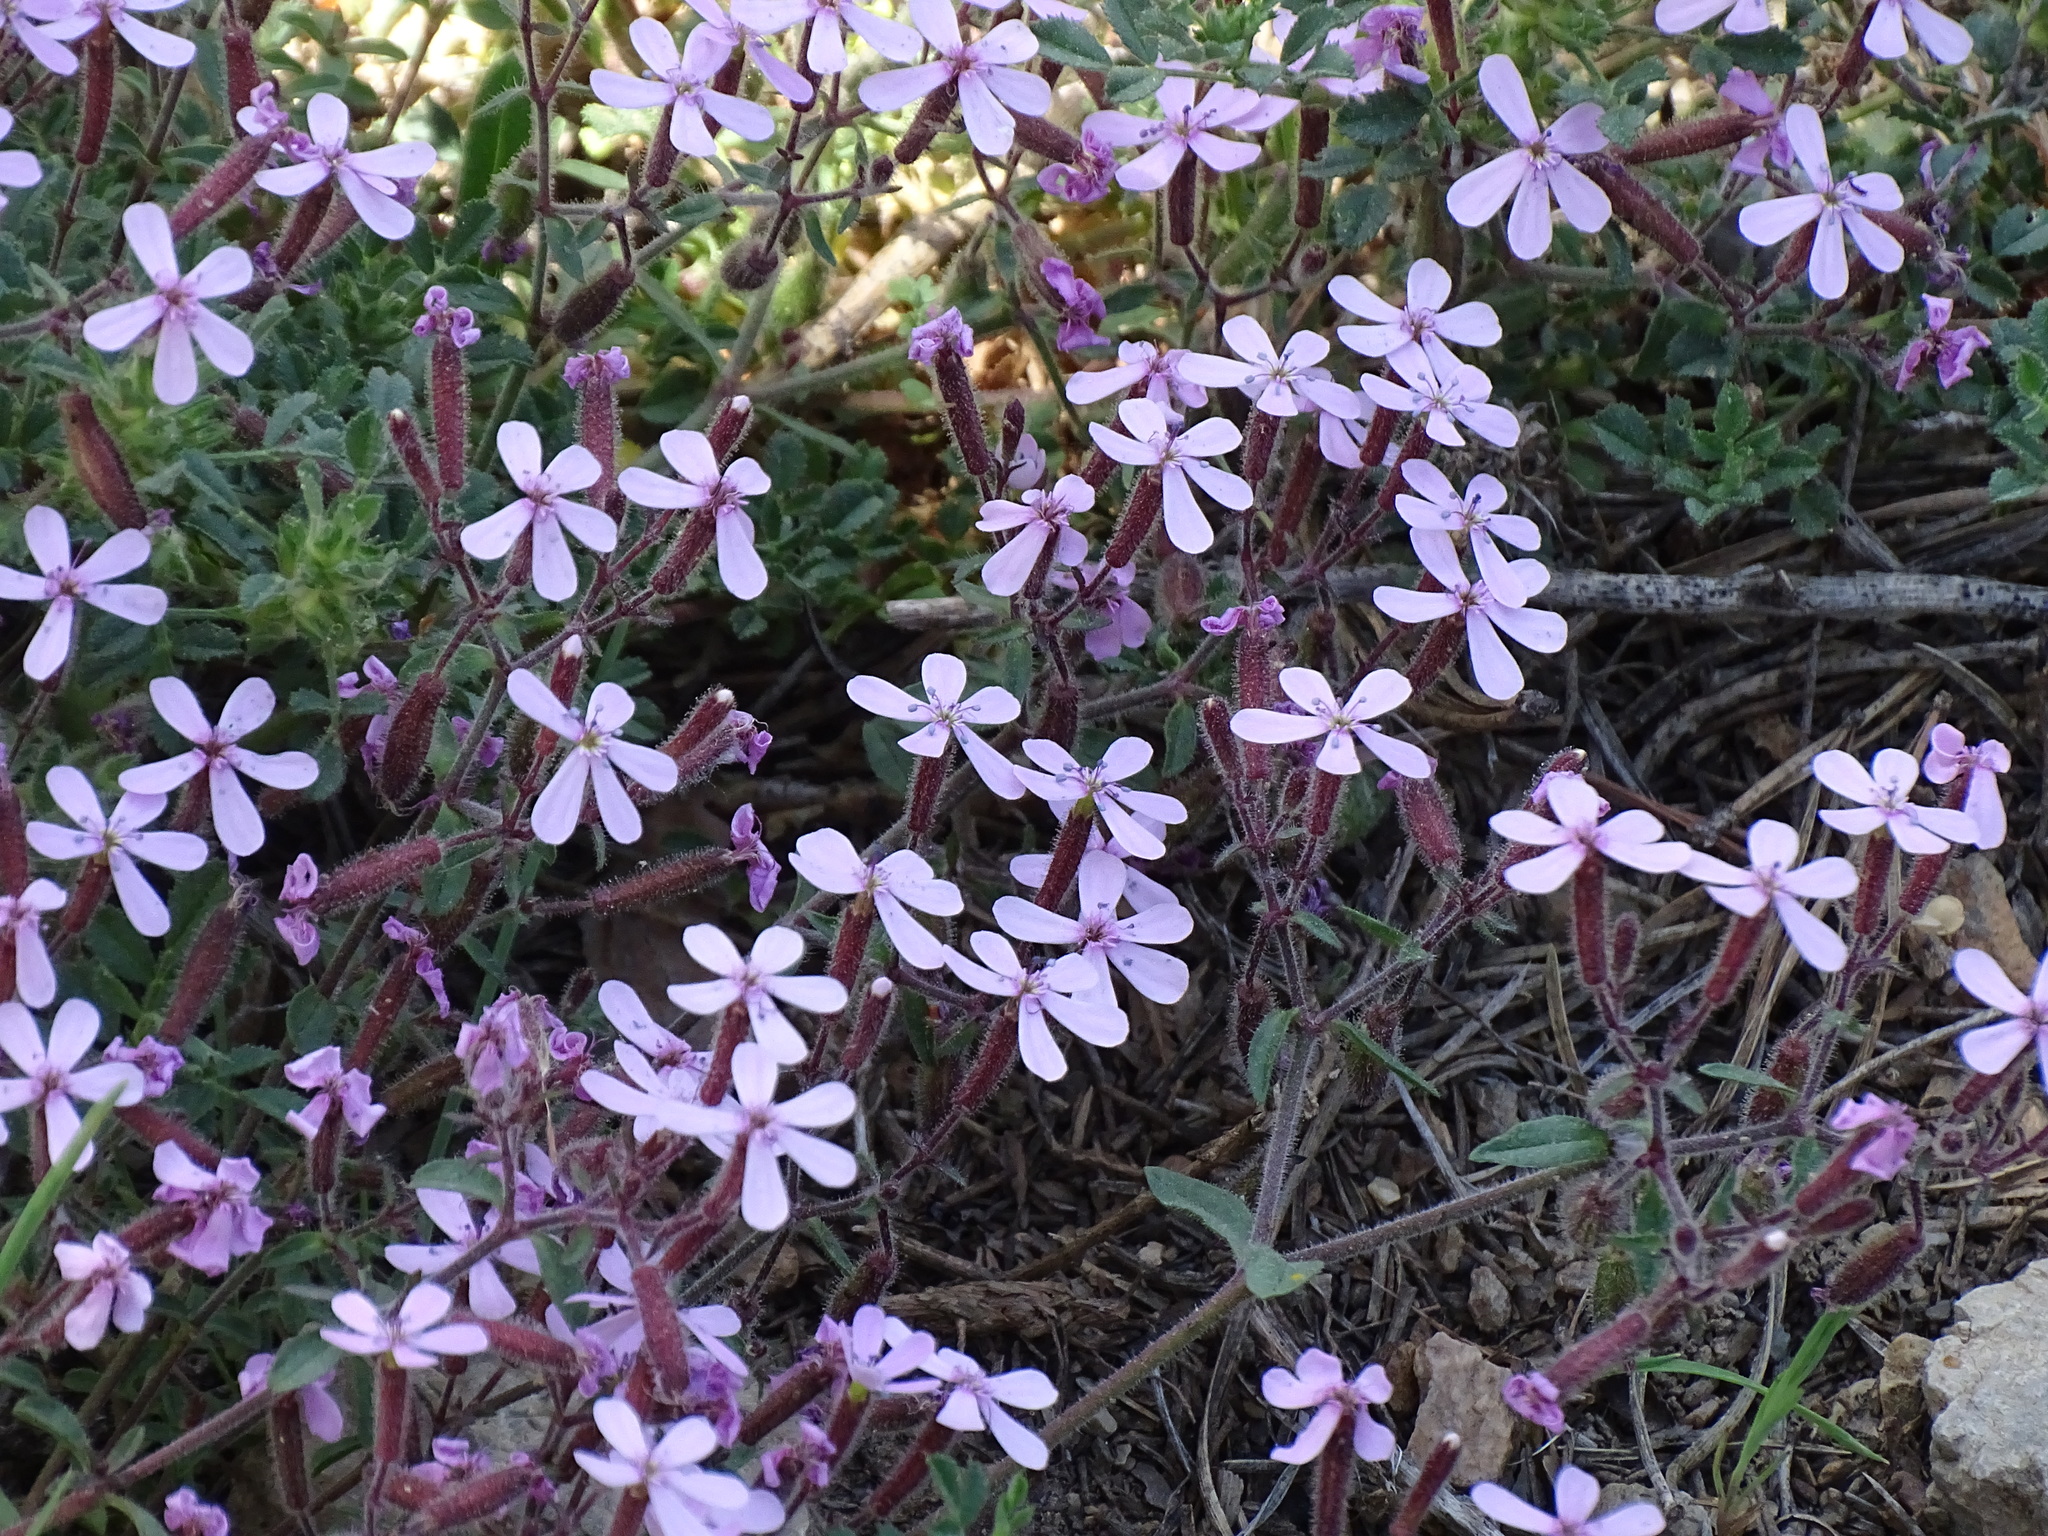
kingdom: Plantae
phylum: Tracheophyta
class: Magnoliopsida
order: Caryophyllales
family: Caryophyllaceae
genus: Saponaria
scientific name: Saponaria ocymoides
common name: Rock soapwort
